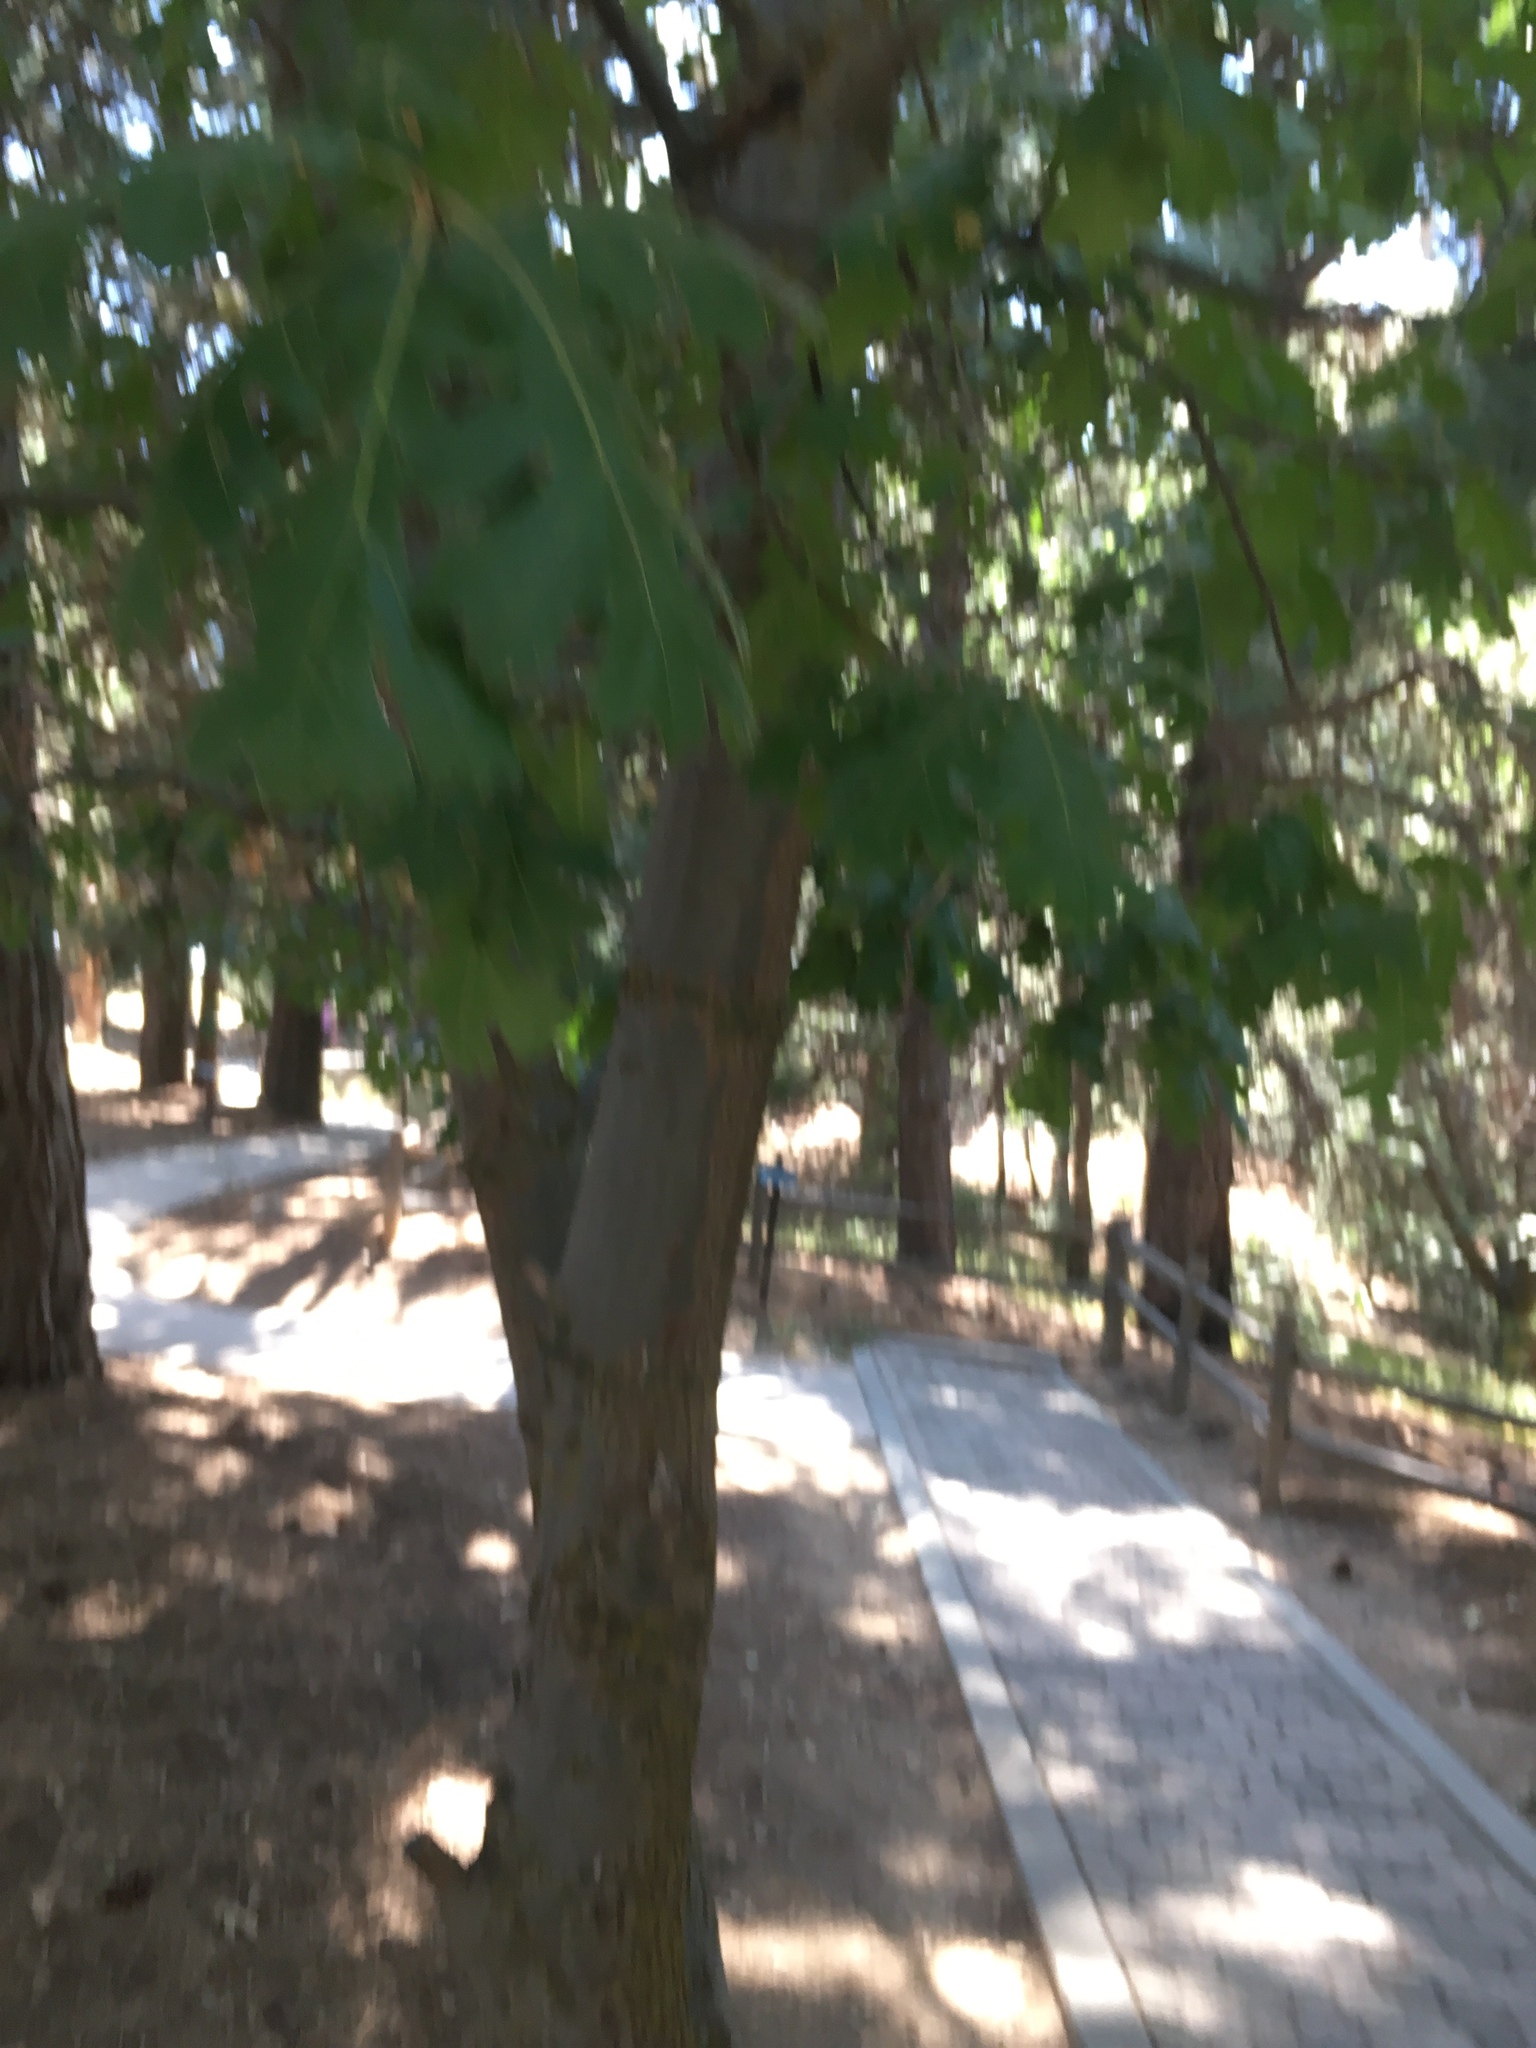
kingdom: Plantae
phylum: Tracheophyta
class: Magnoliopsida
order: Fagales
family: Fagaceae
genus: Quercus
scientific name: Quercus kelloggii
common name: California black oak
